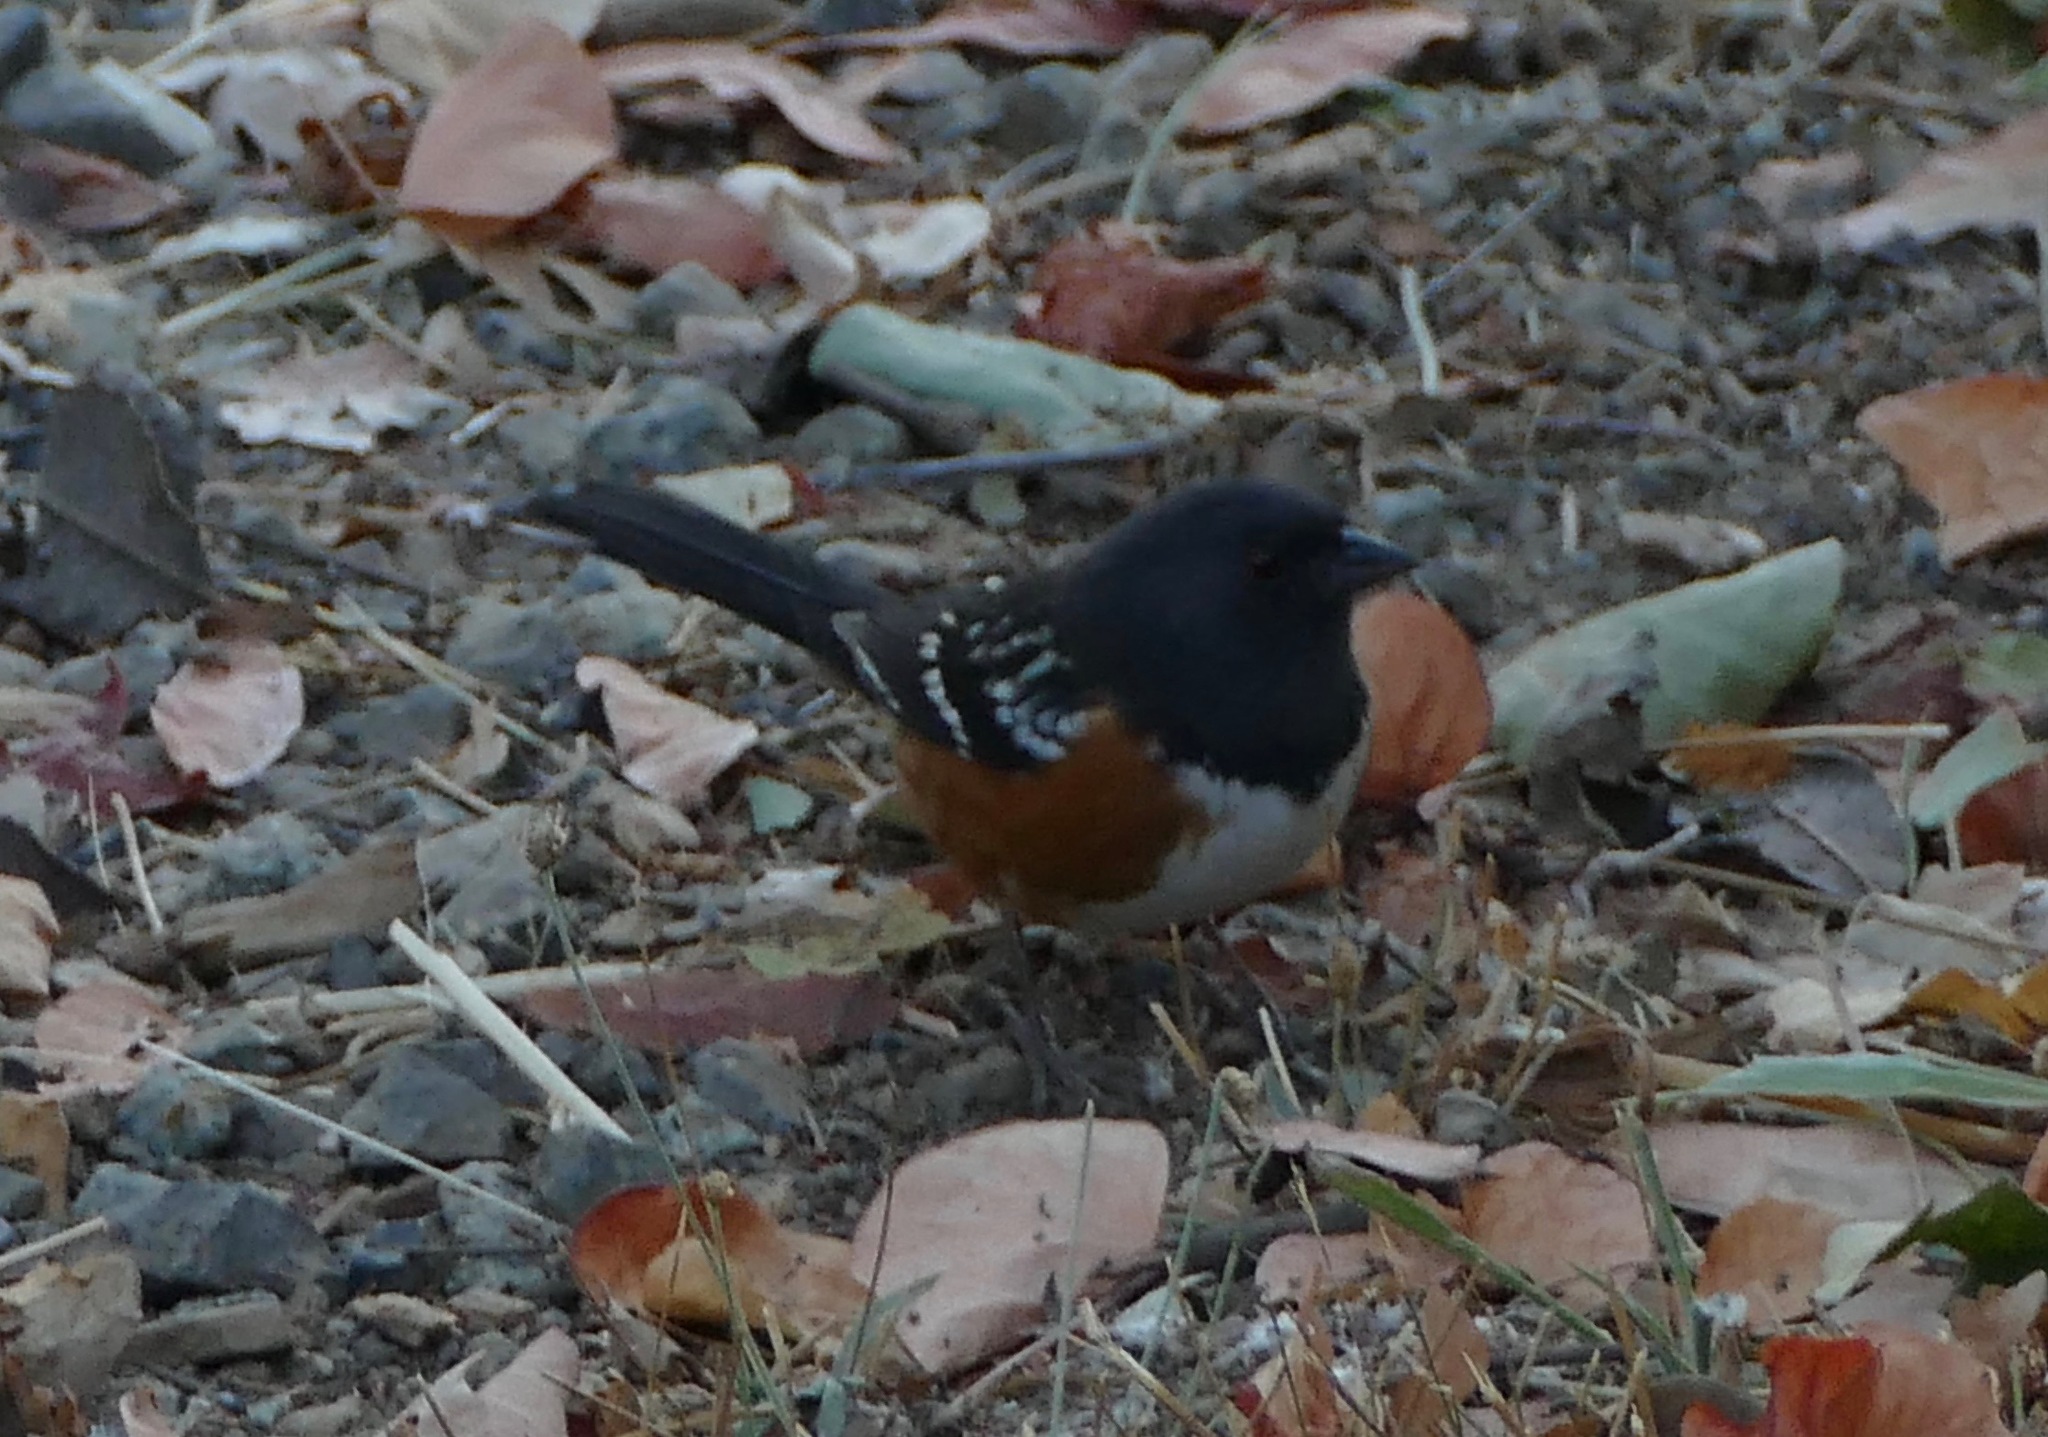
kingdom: Animalia
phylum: Chordata
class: Aves
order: Passeriformes
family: Passerellidae
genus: Pipilo
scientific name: Pipilo maculatus
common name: Spotted towhee
